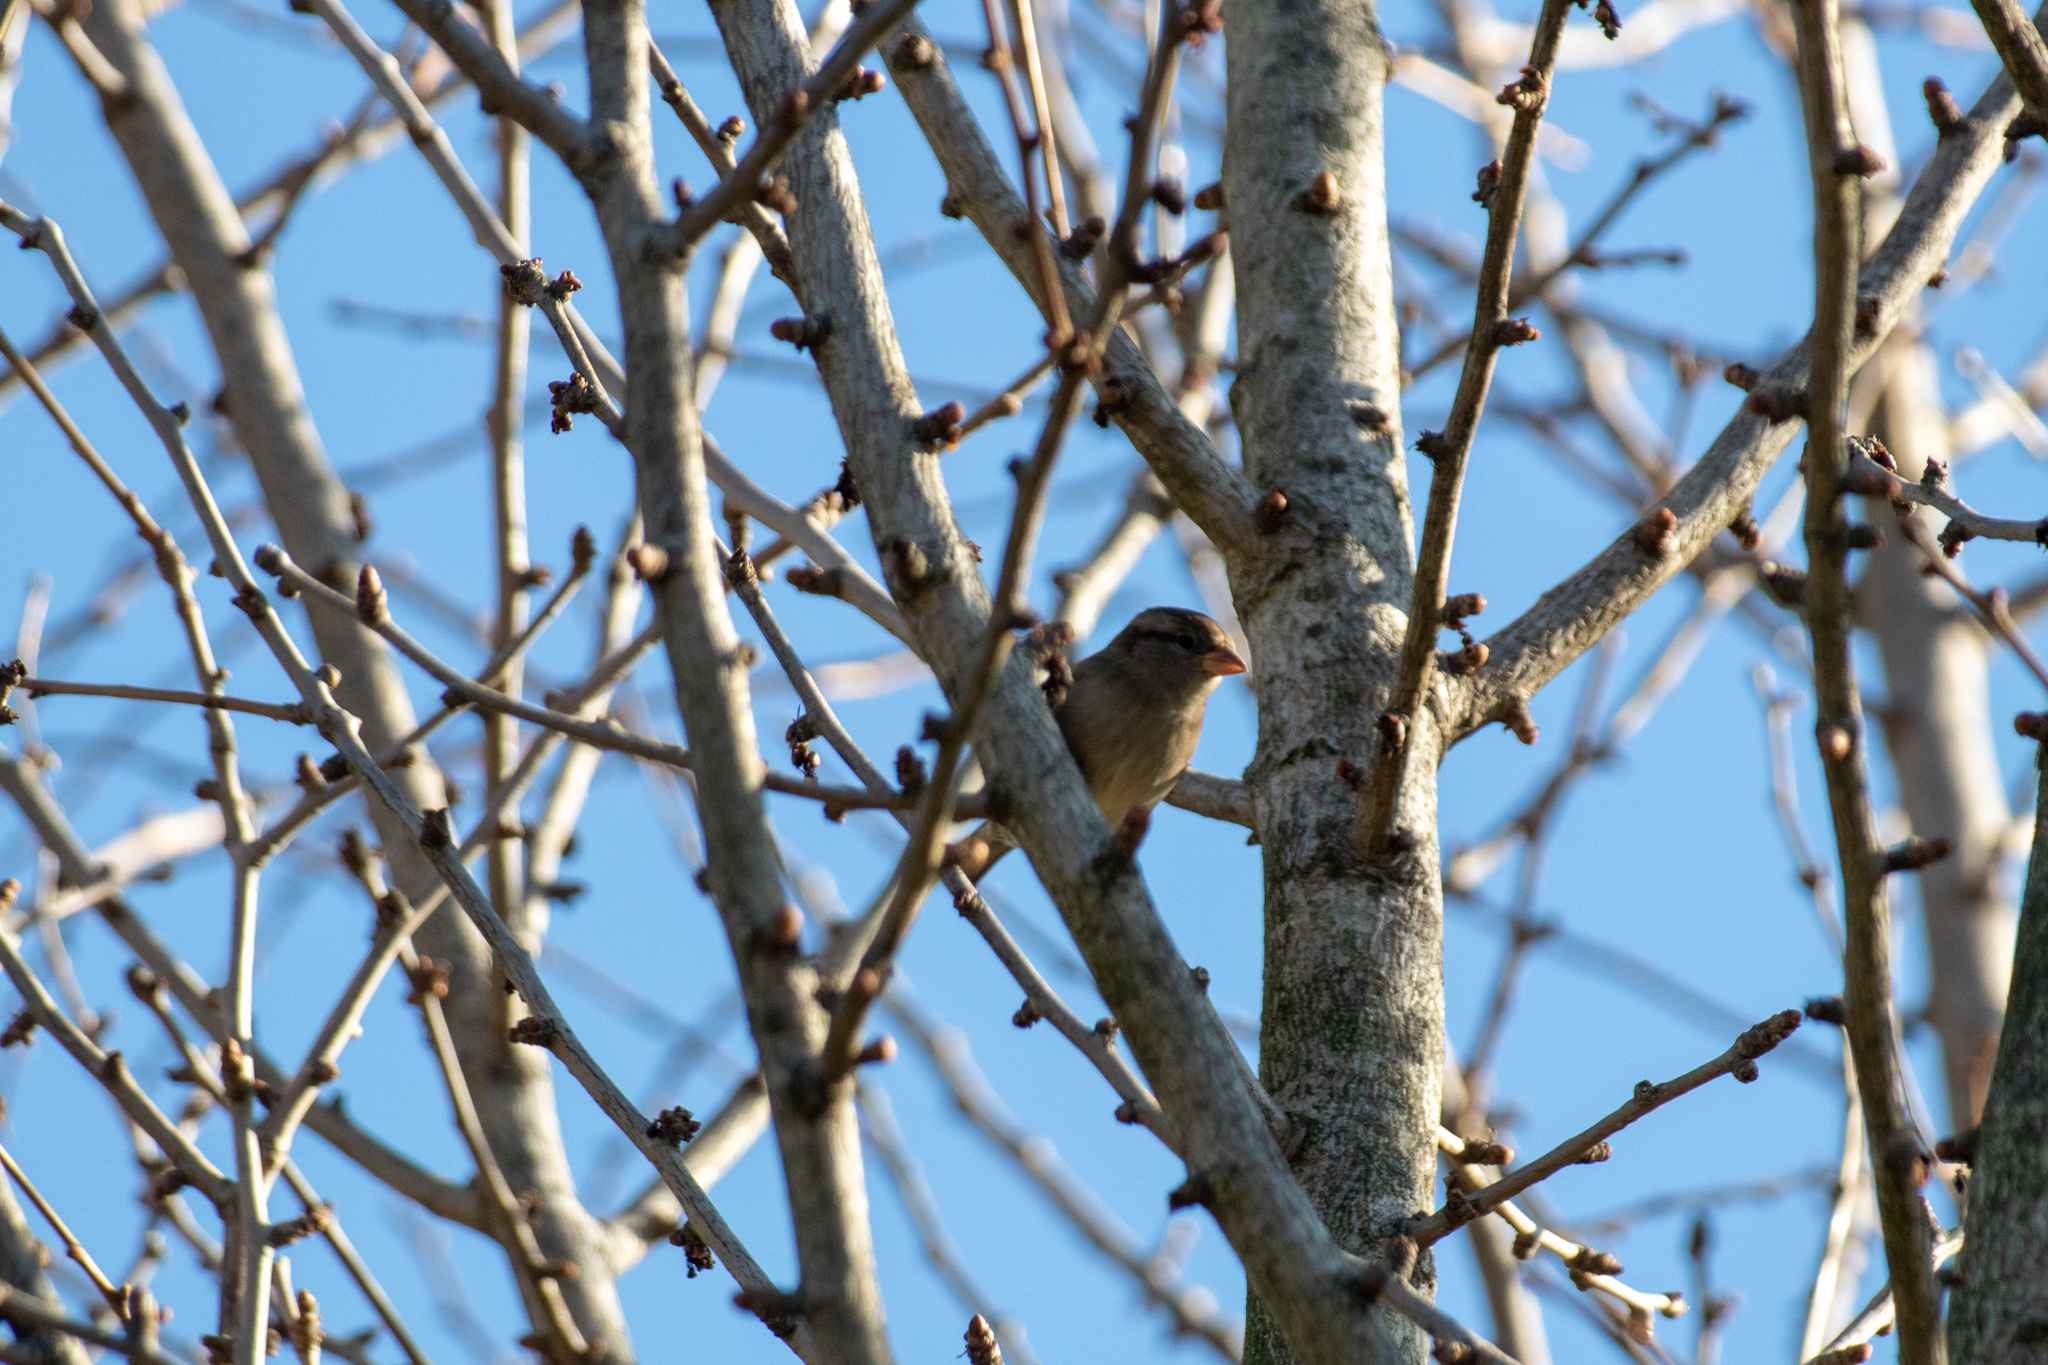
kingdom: Animalia
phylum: Chordata
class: Aves
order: Passeriformes
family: Passeridae
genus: Passer
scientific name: Passer domesticus
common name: House sparrow
